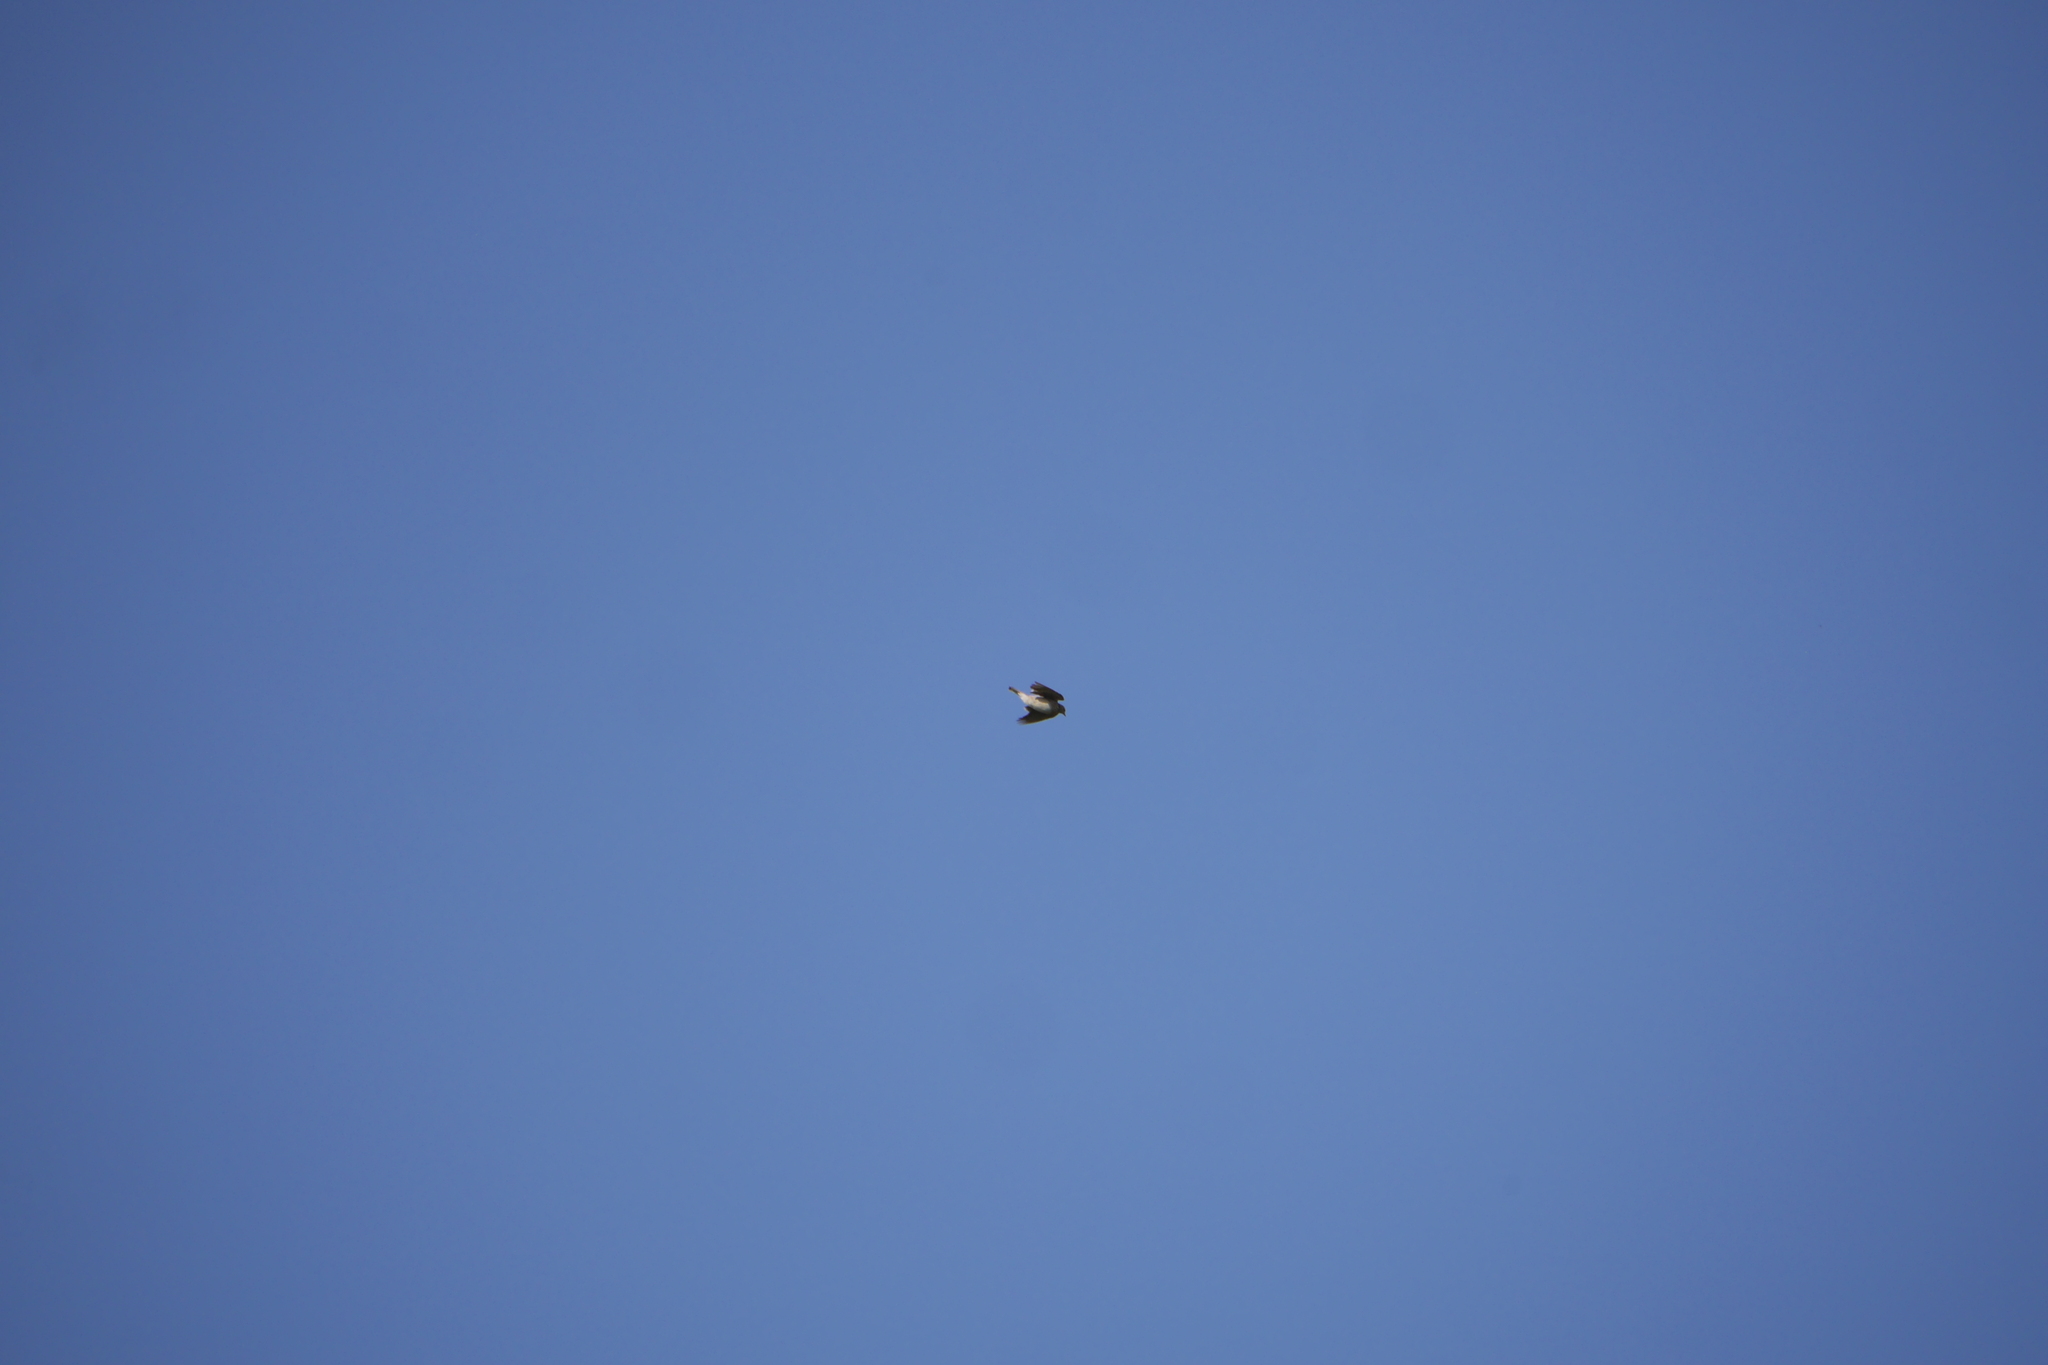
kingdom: Animalia
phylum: Chordata
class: Aves
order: Passeriformes
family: Alaudidae
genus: Alauda
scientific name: Alauda arvensis
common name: Eurasian skylark
